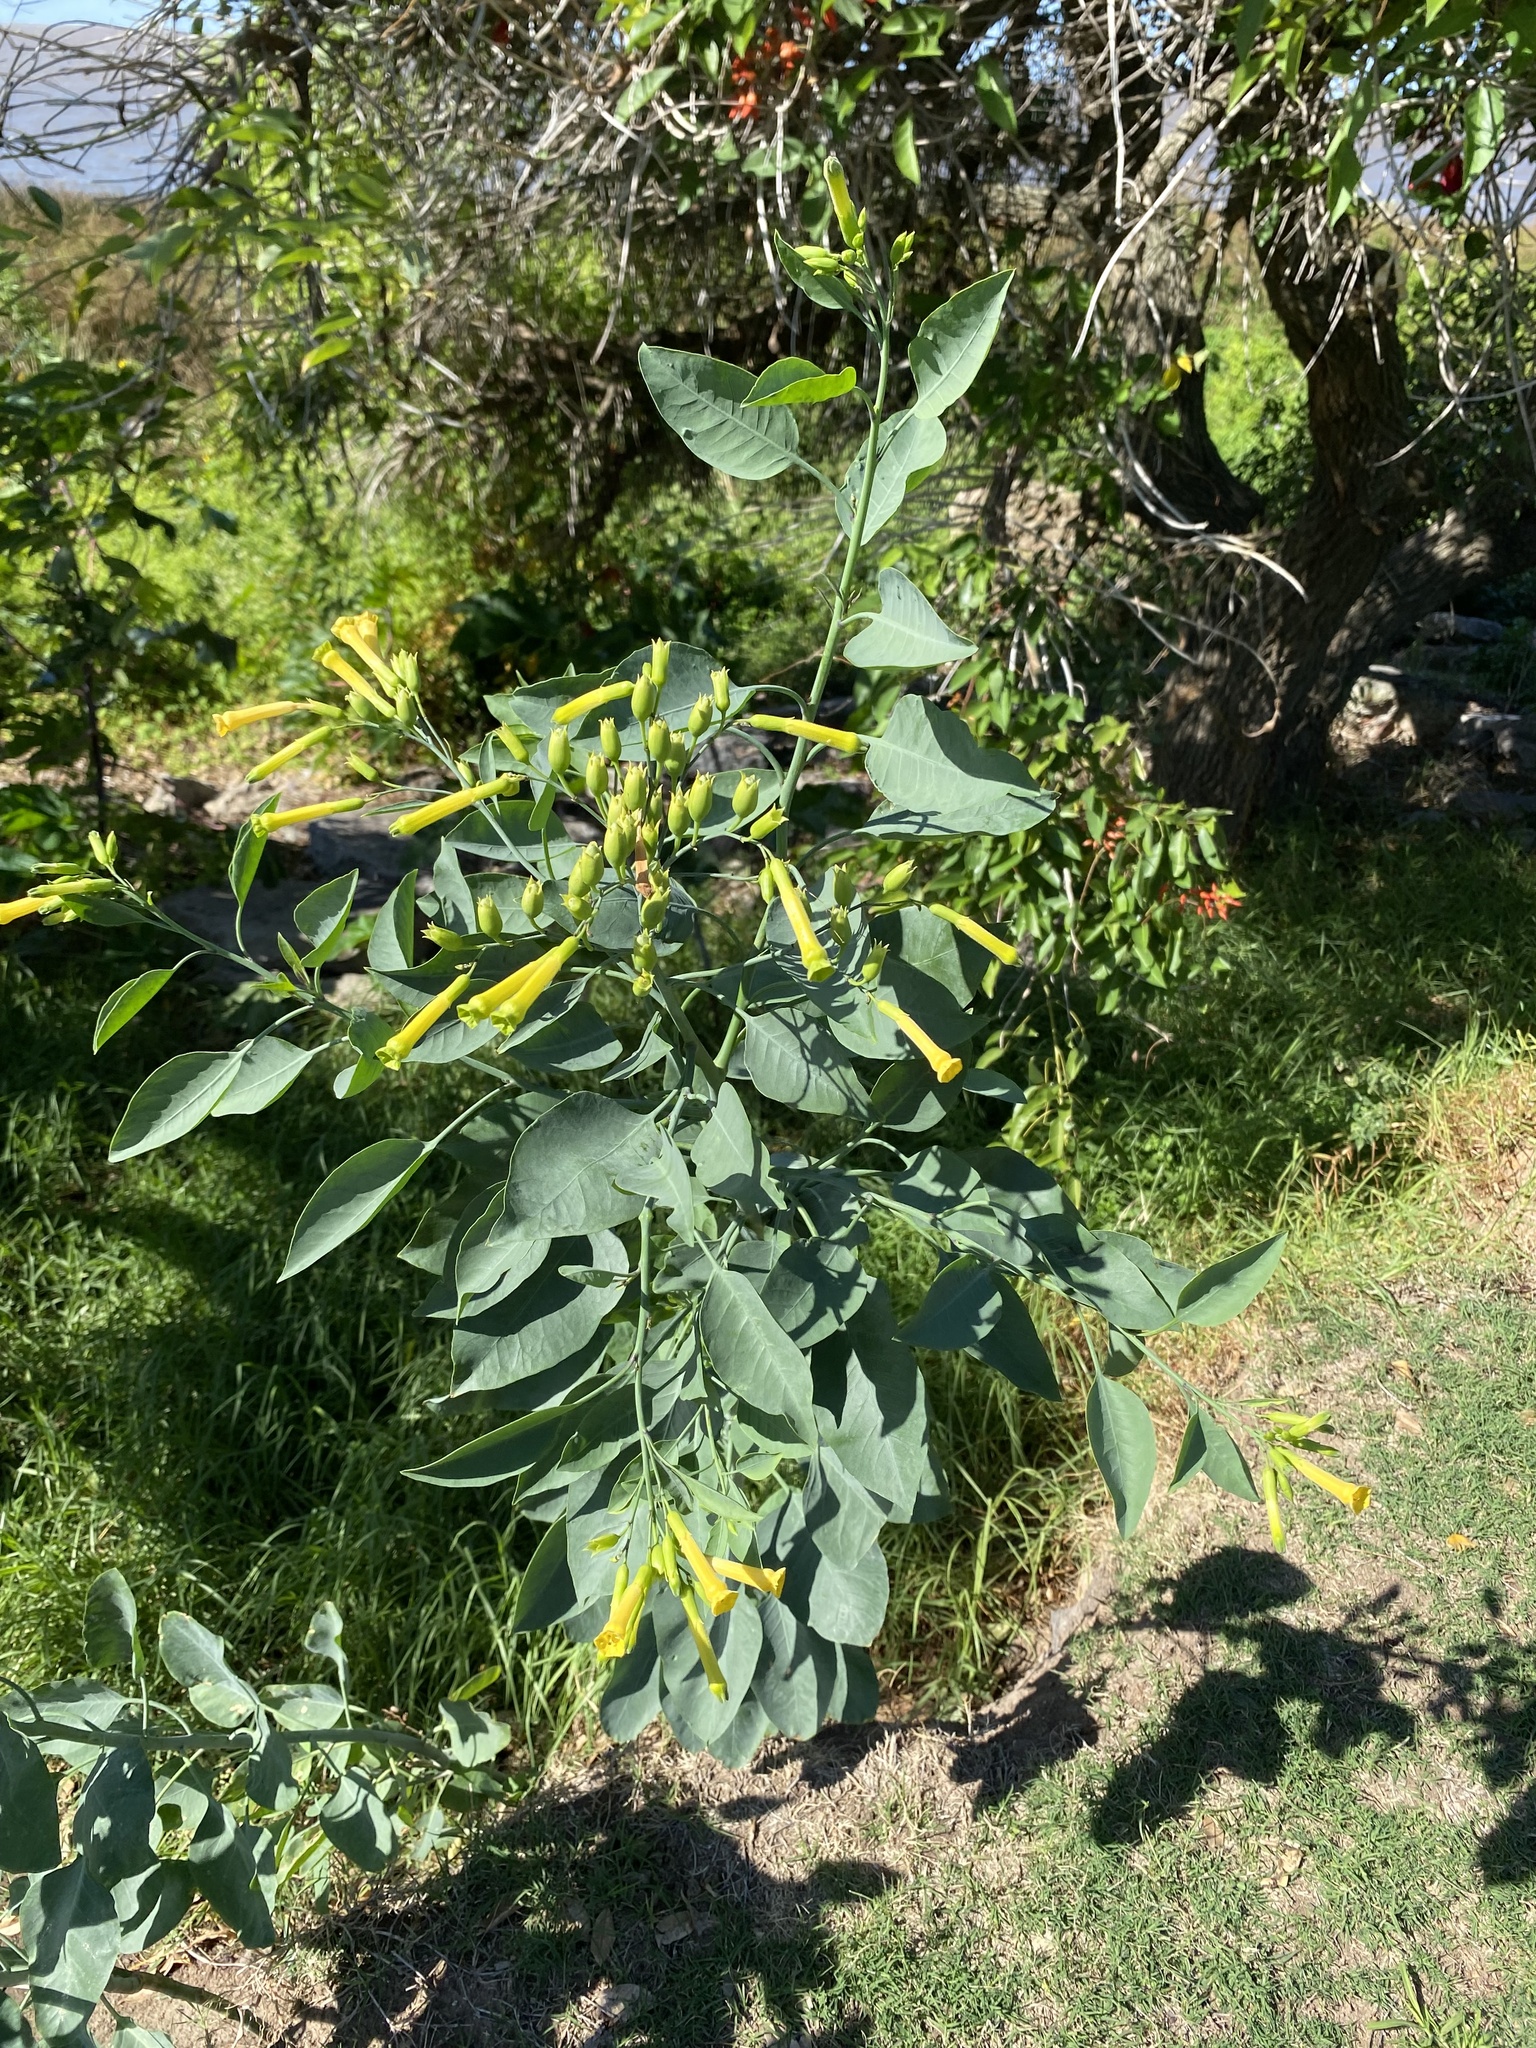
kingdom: Plantae
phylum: Tracheophyta
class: Magnoliopsida
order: Solanales
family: Solanaceae
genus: Nicotiana
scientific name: Nicotiana glauca
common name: Tree tobacco
